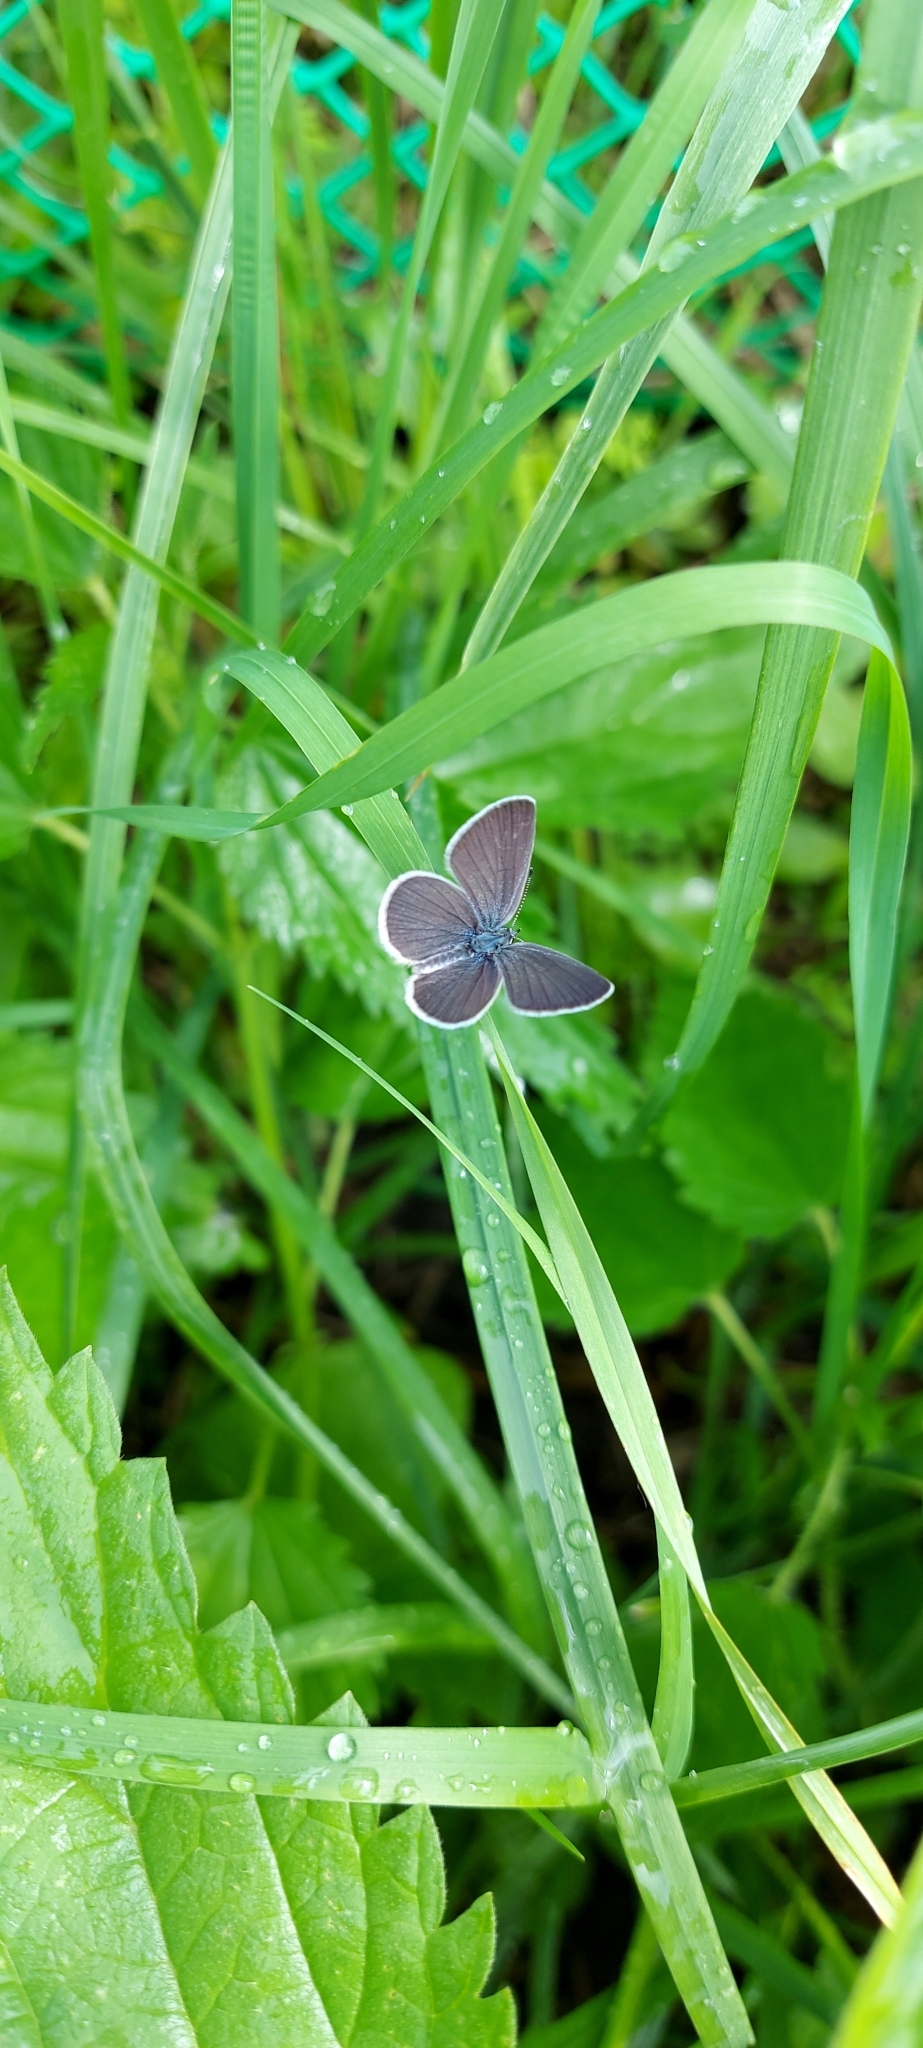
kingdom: Animalia
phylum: Arthropoda
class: Insecta
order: Lepidoptera
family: Lycaenidae
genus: Cupido
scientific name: Cupido minimus
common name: Small blue
